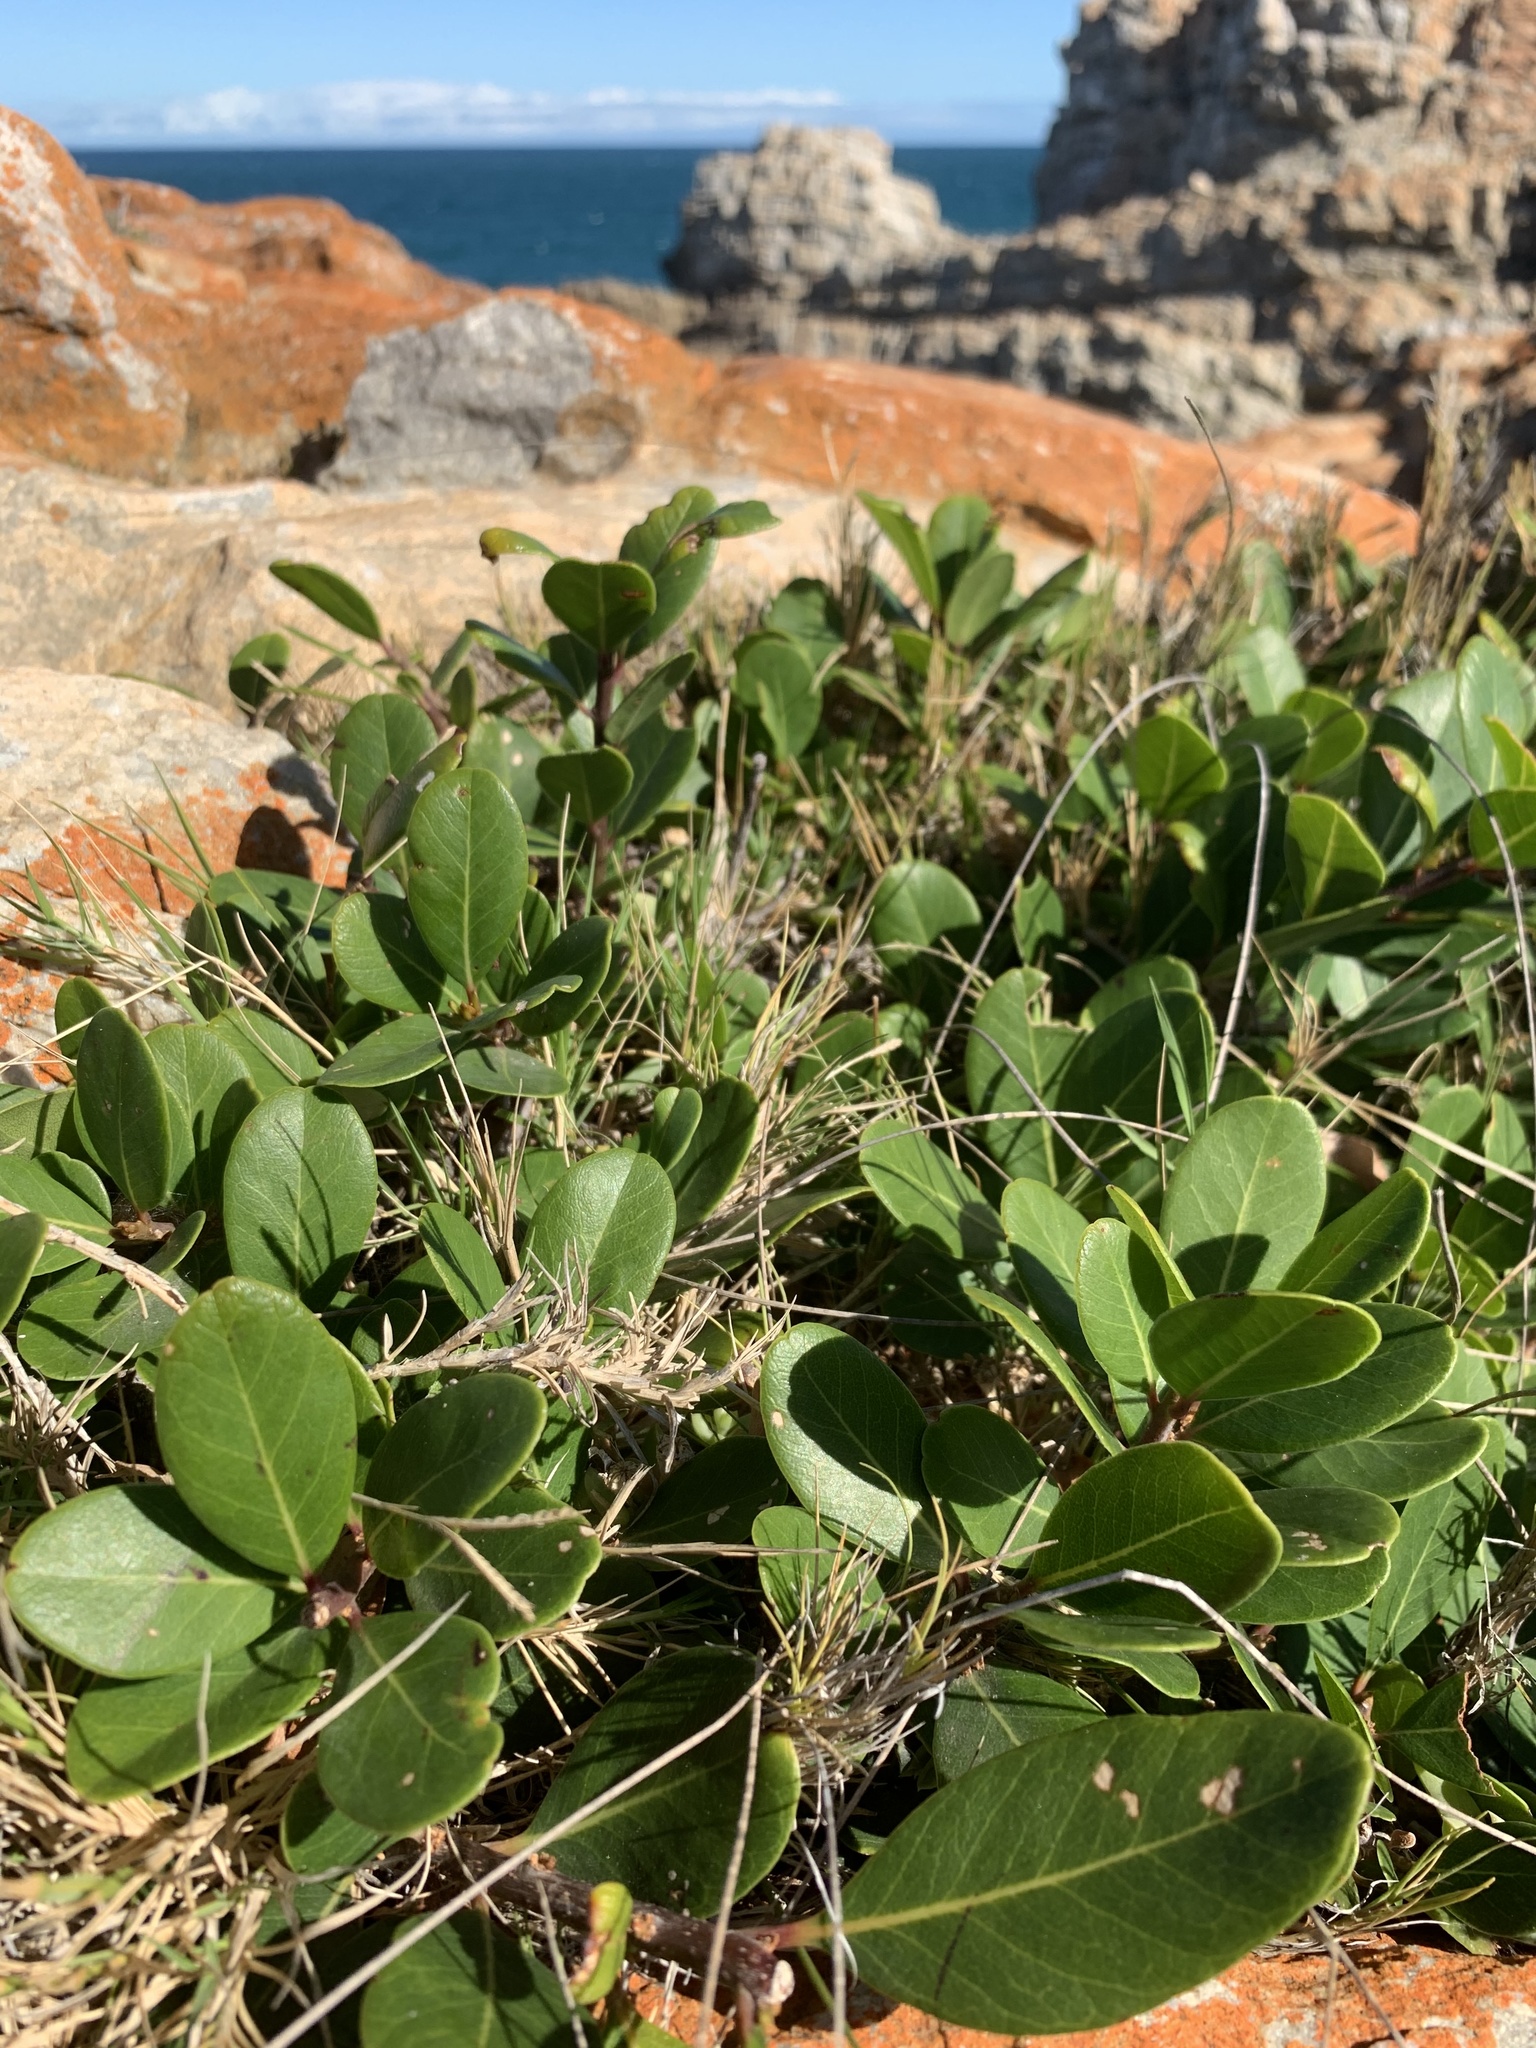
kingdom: Plantae
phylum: Tracheophyta
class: Magnoliopsida
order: Ericales
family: Sapotaceae
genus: Sideroxylon
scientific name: Sideroxylon inerme
